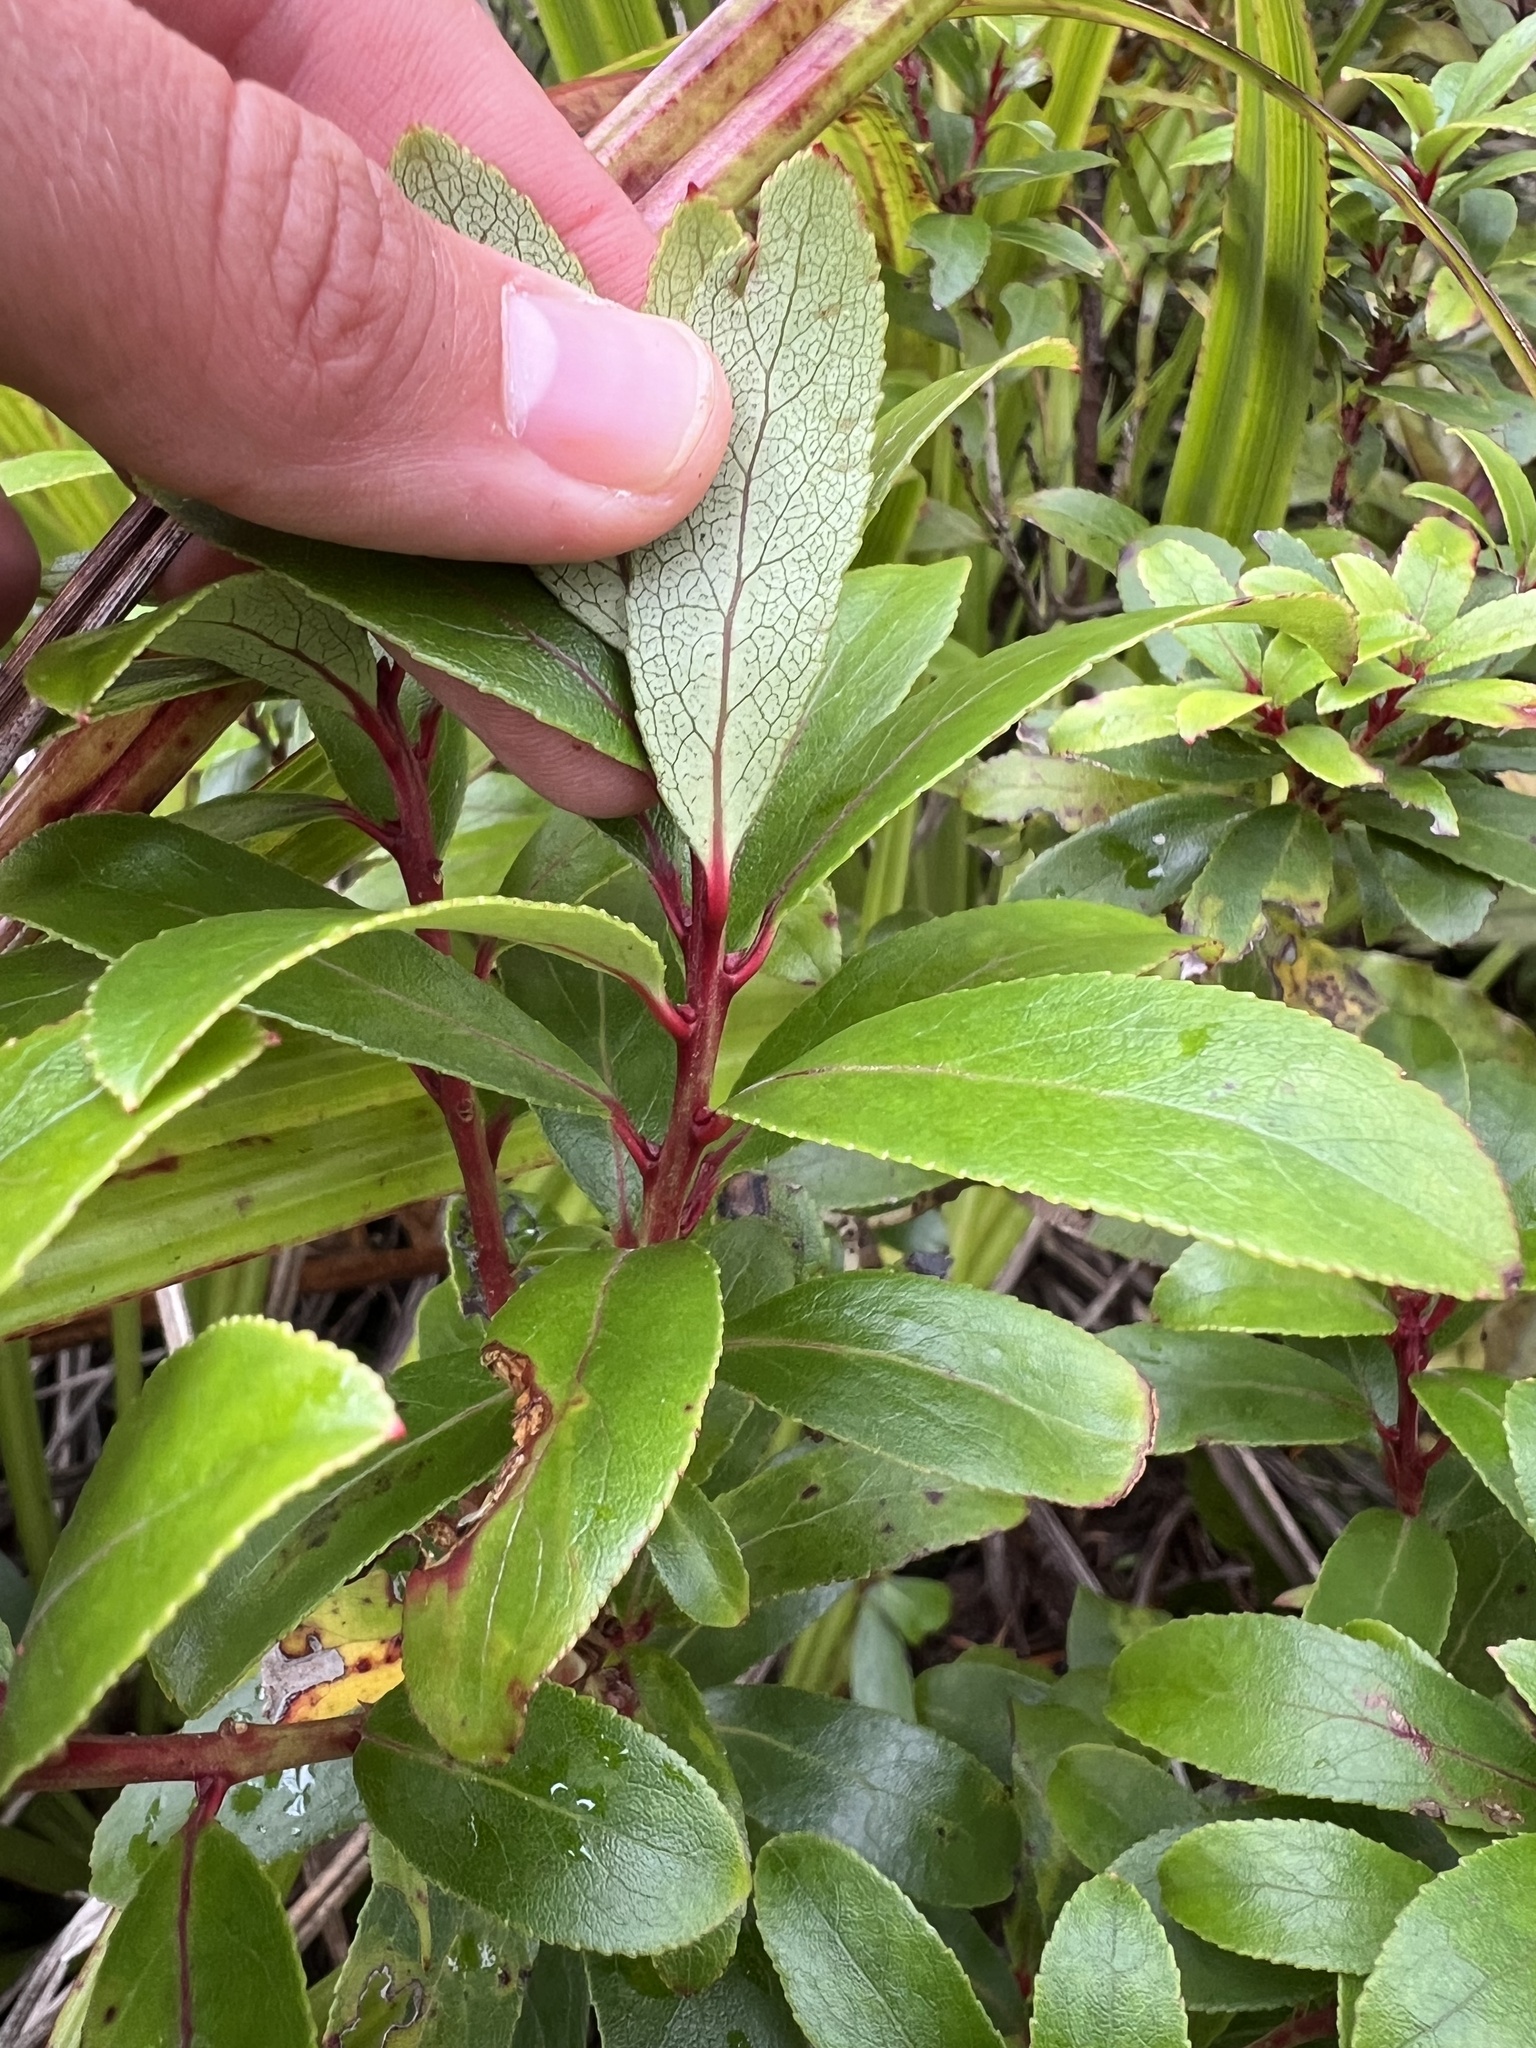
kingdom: Plantae
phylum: Tracheophyta
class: Magnoliopsida
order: Ericales
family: Ericaceae
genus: Gaultheria
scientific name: Gaultheria paniculata
